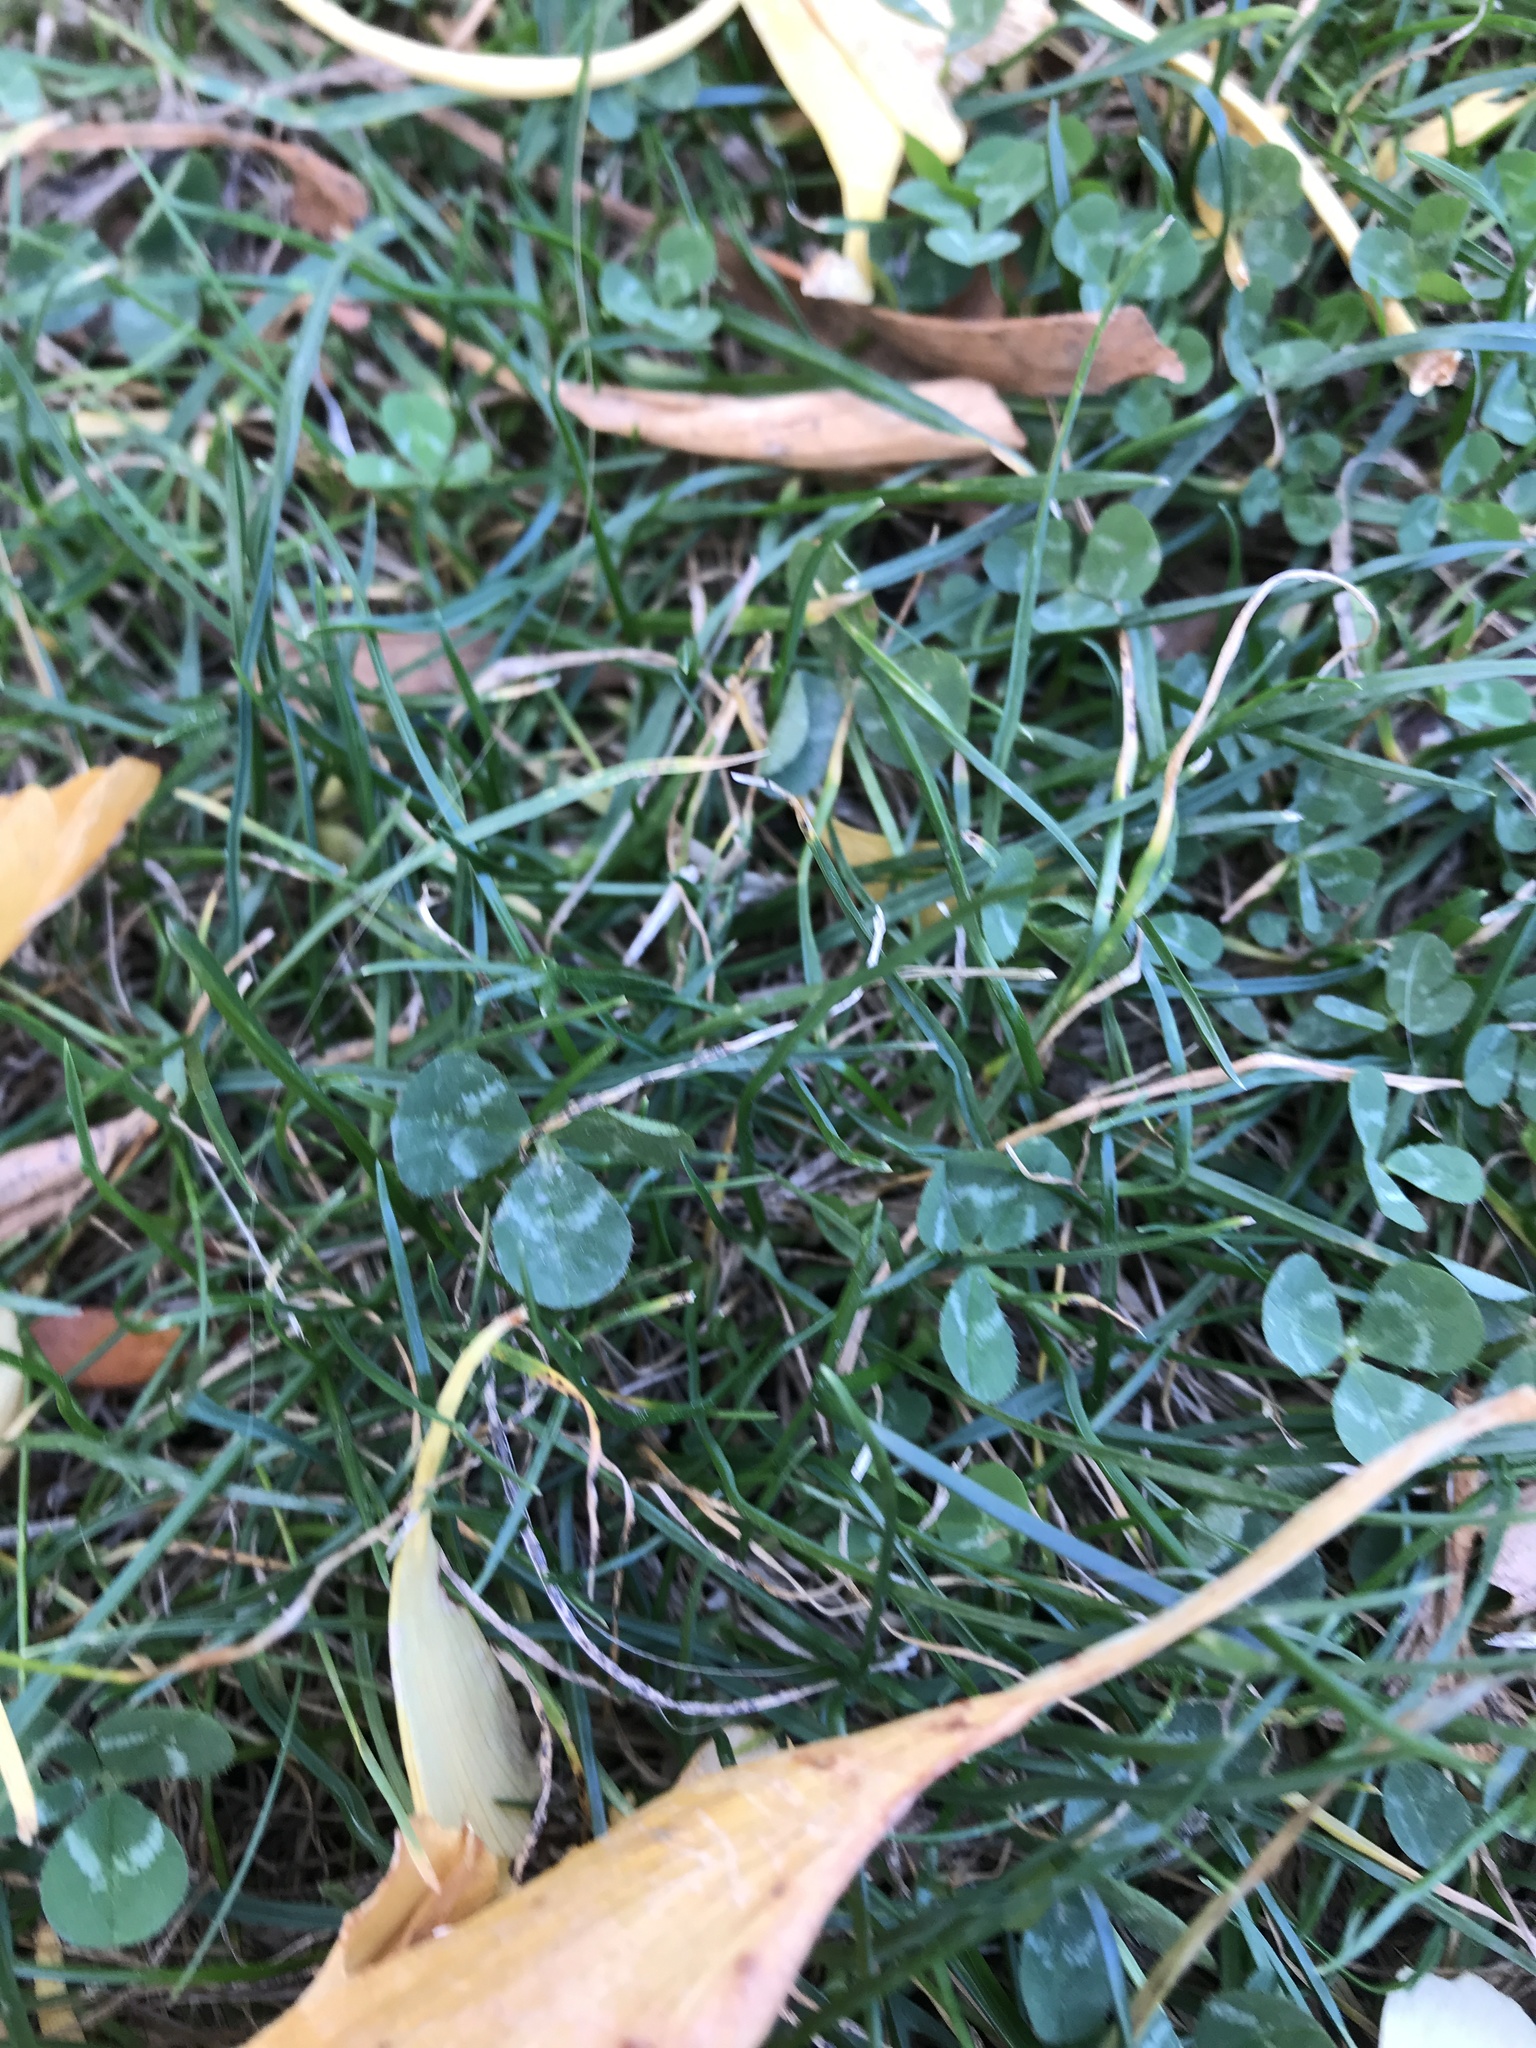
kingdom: Plantae
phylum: Tracheophyta
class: Magnoliopsida
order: Fabales
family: Fabaceae
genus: Trifolium
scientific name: Trifolium repens
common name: White clover
